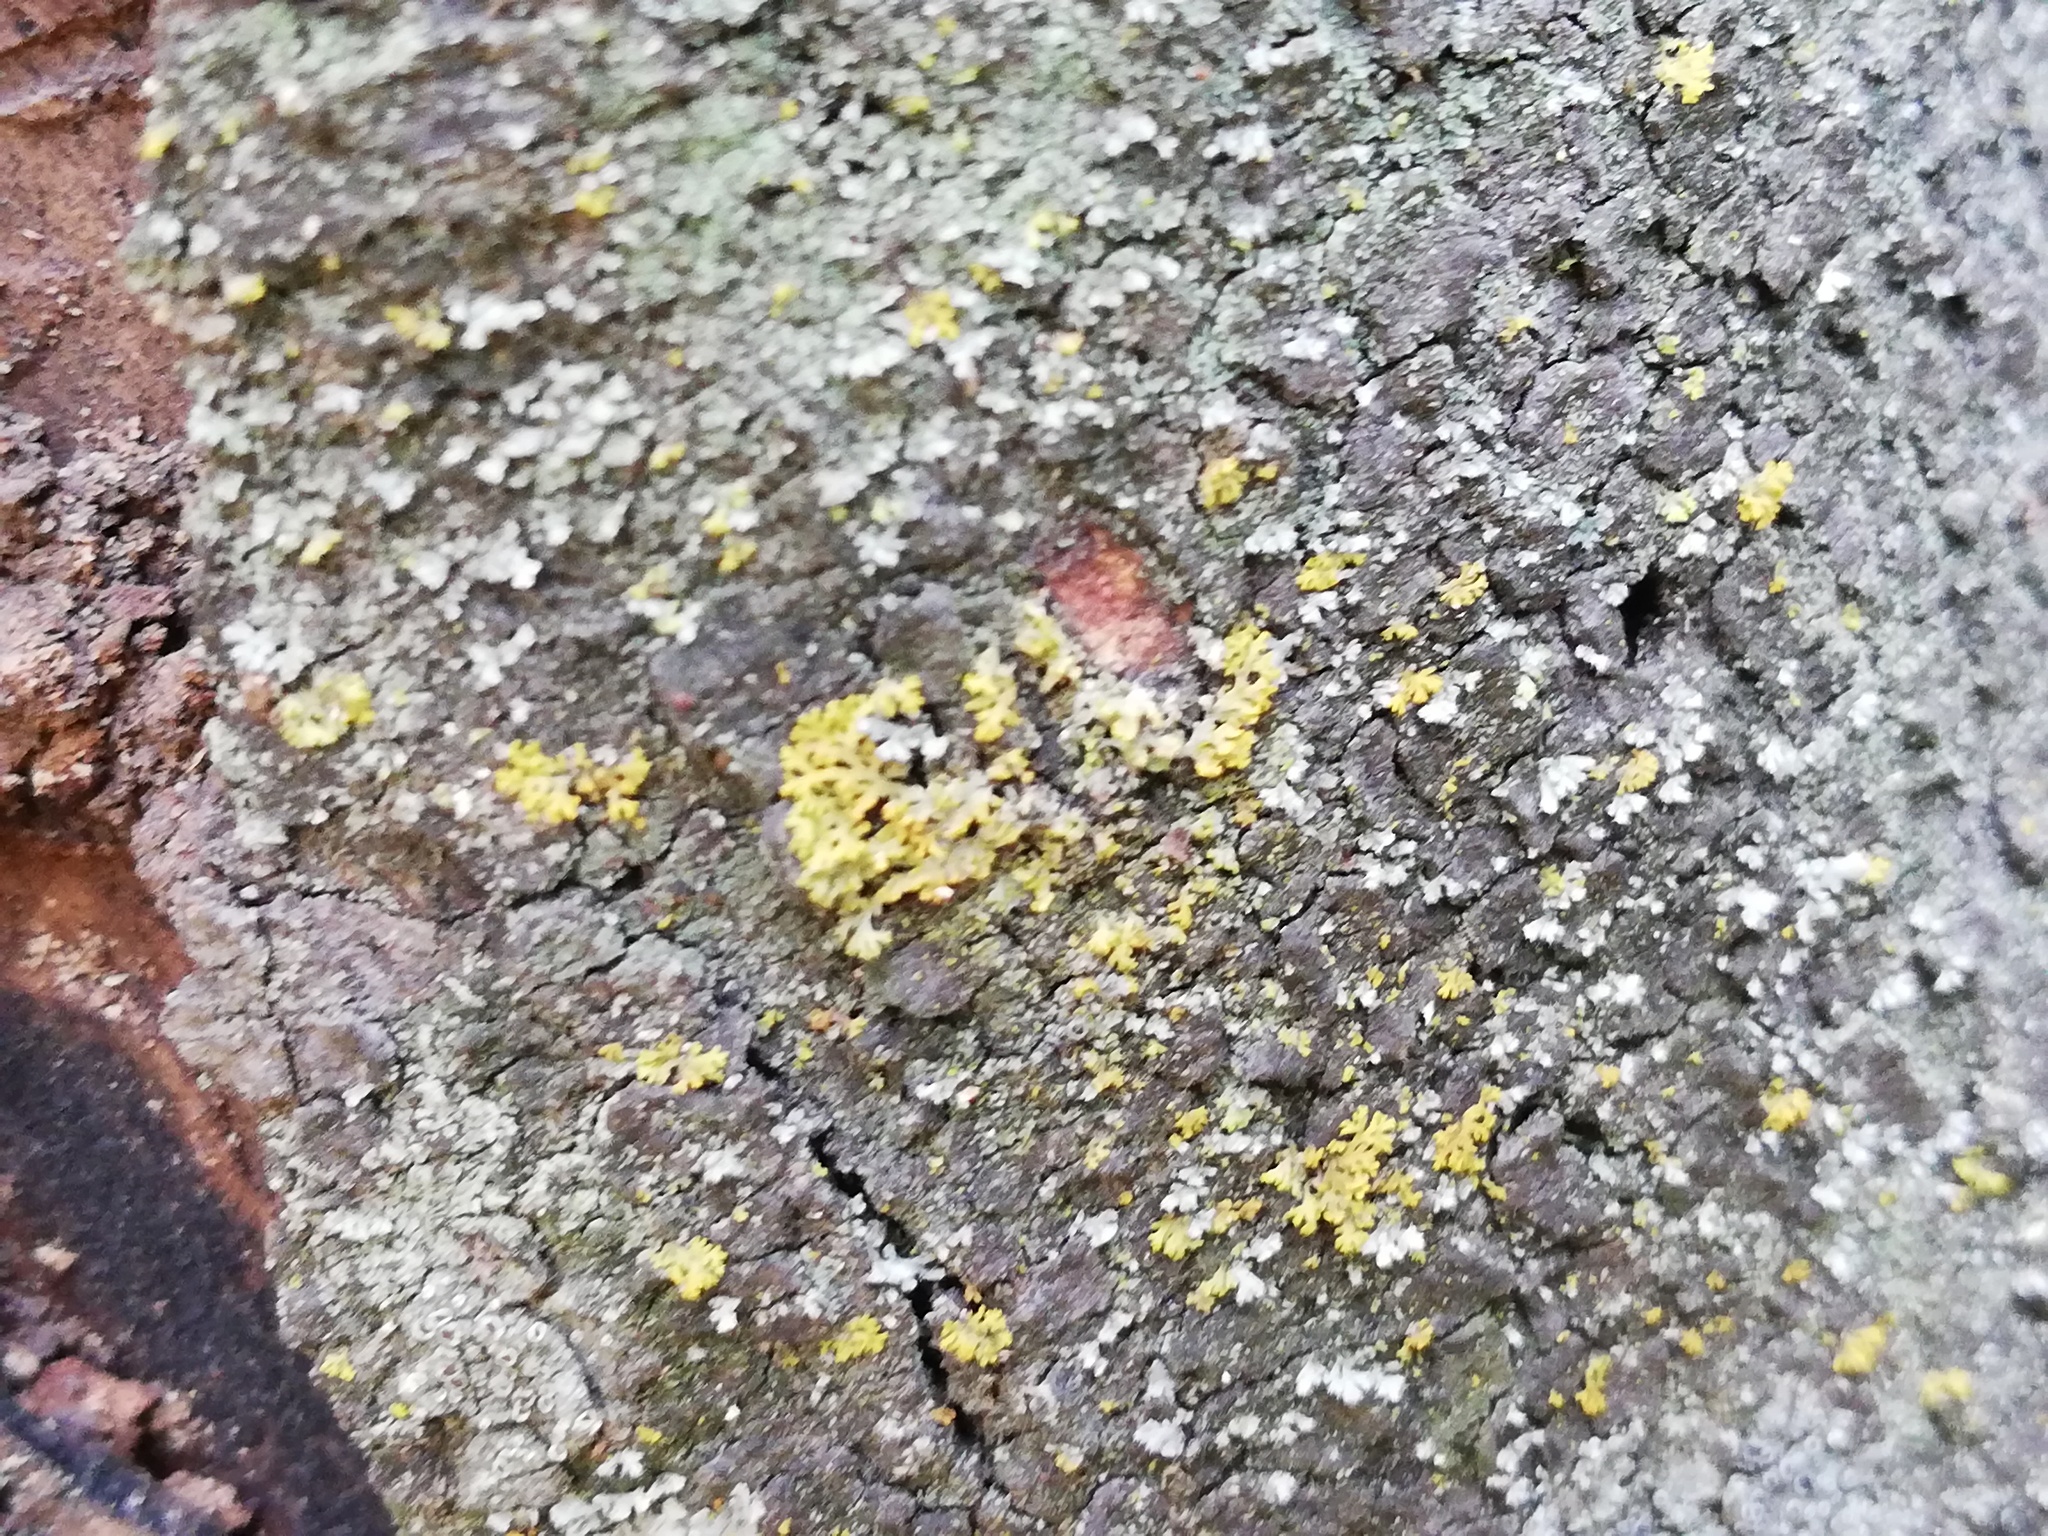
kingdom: Fungi
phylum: Ascomycota
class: Lecanoromycetes
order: Teloschistales
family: Teloschistaceae
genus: Gallowayella
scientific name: Gallowayella weberi
